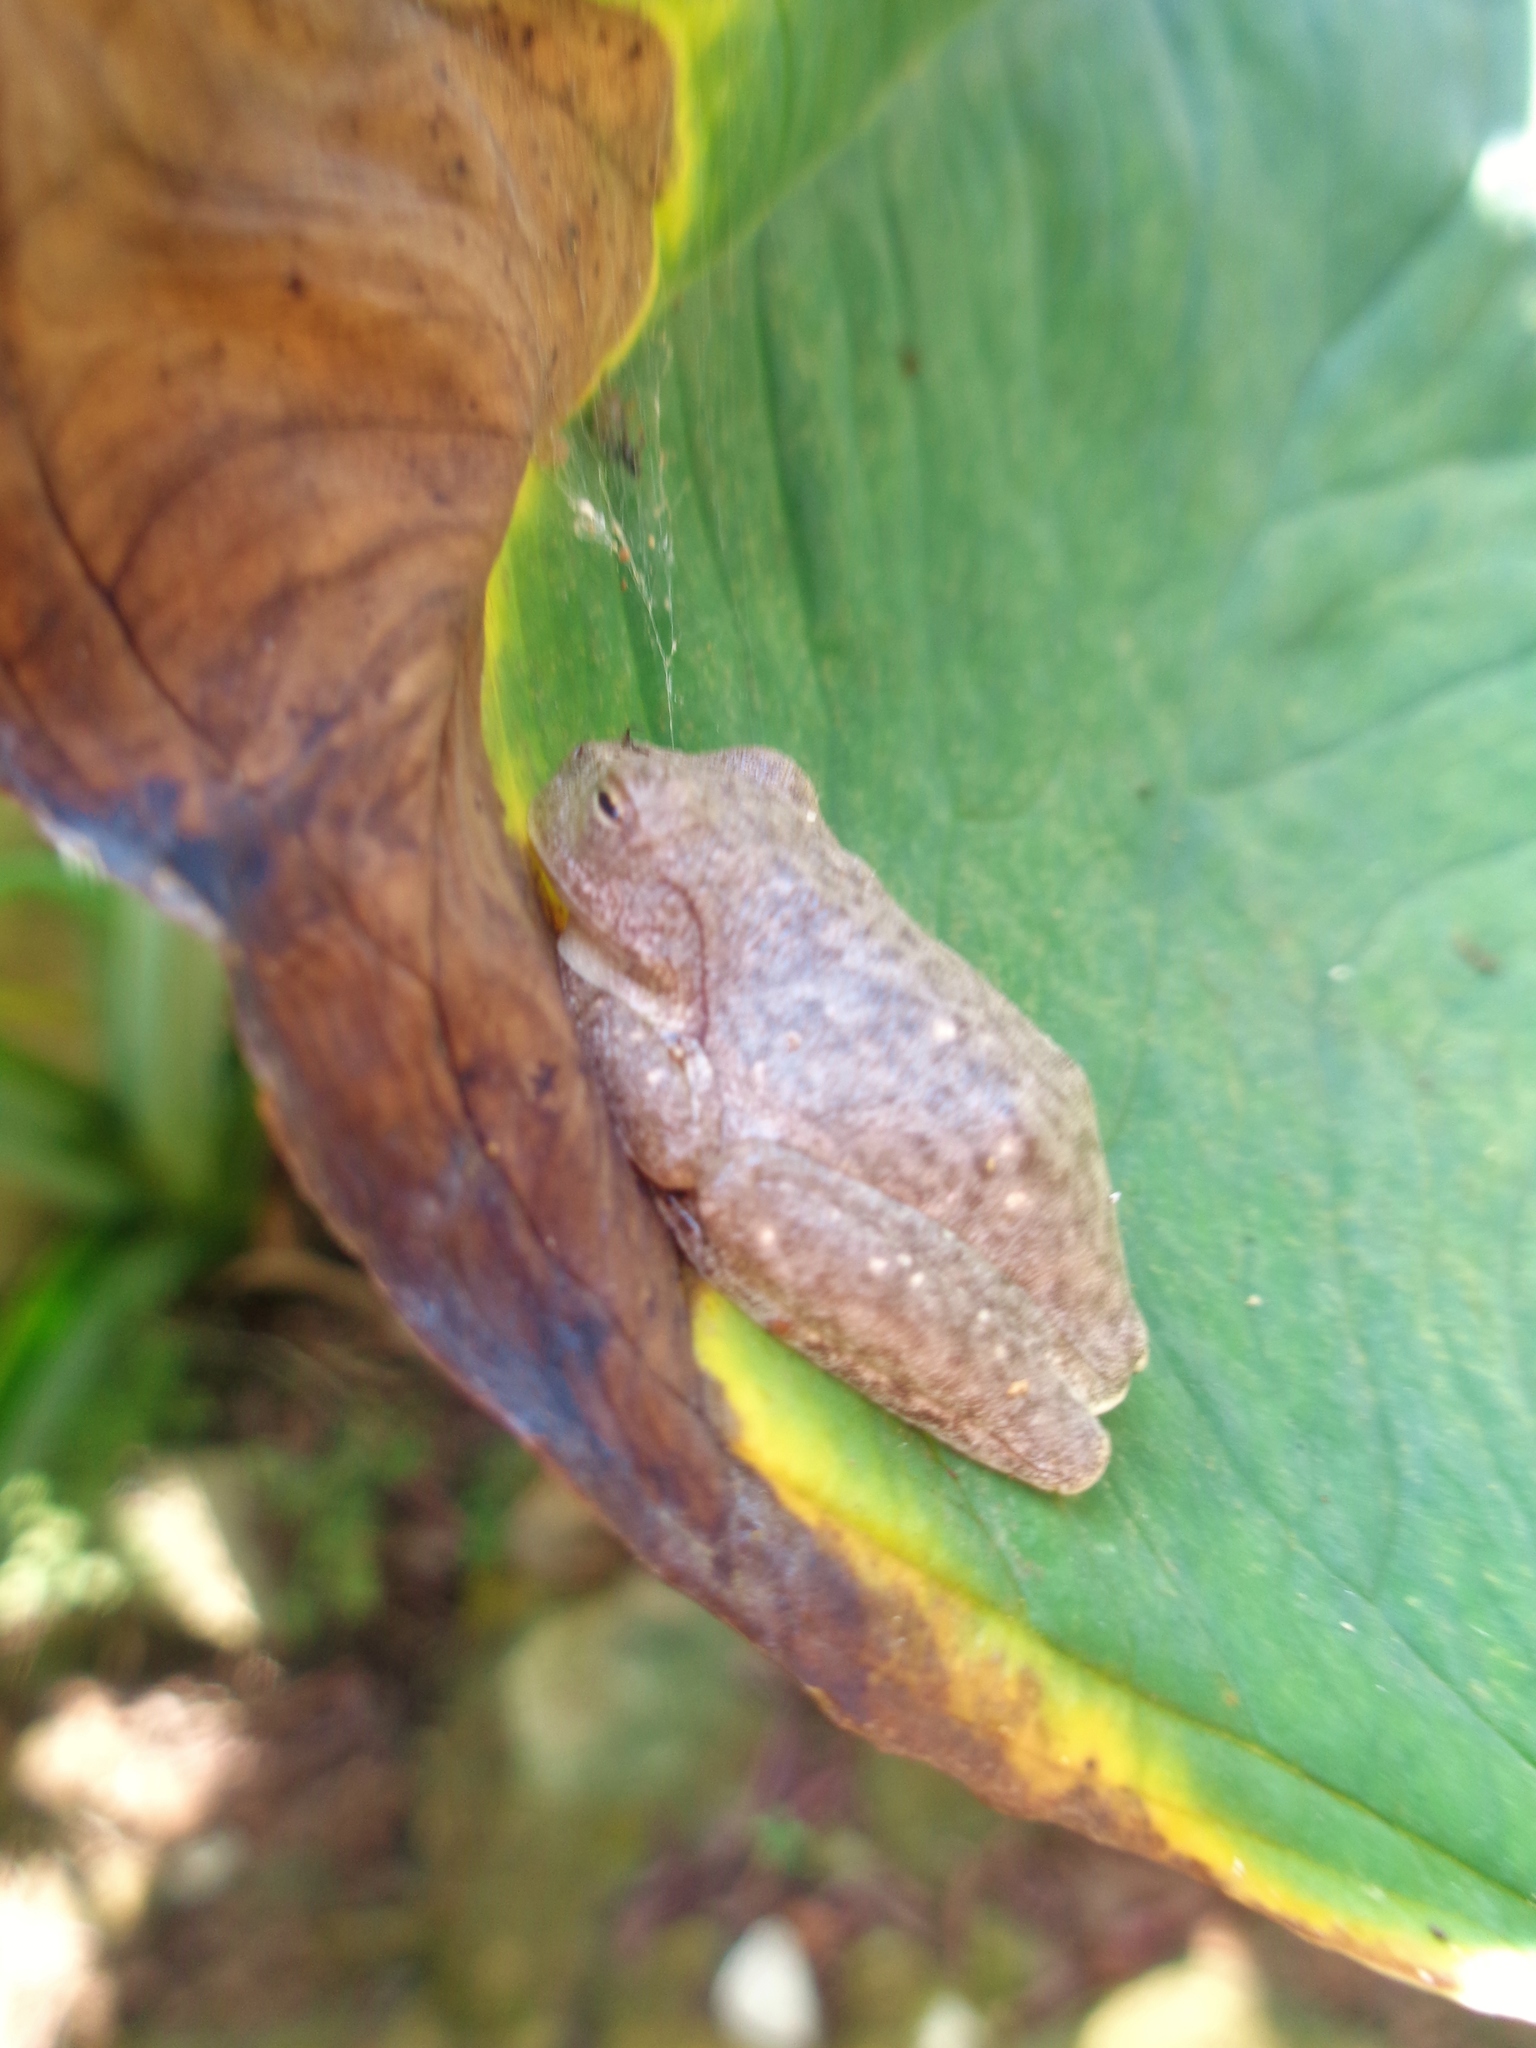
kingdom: Animalia
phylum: Chordata
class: Amphibia
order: Anura
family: Hylidae
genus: Rheohyla
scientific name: Rheohyla miotympanum
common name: Small-eard hyla
